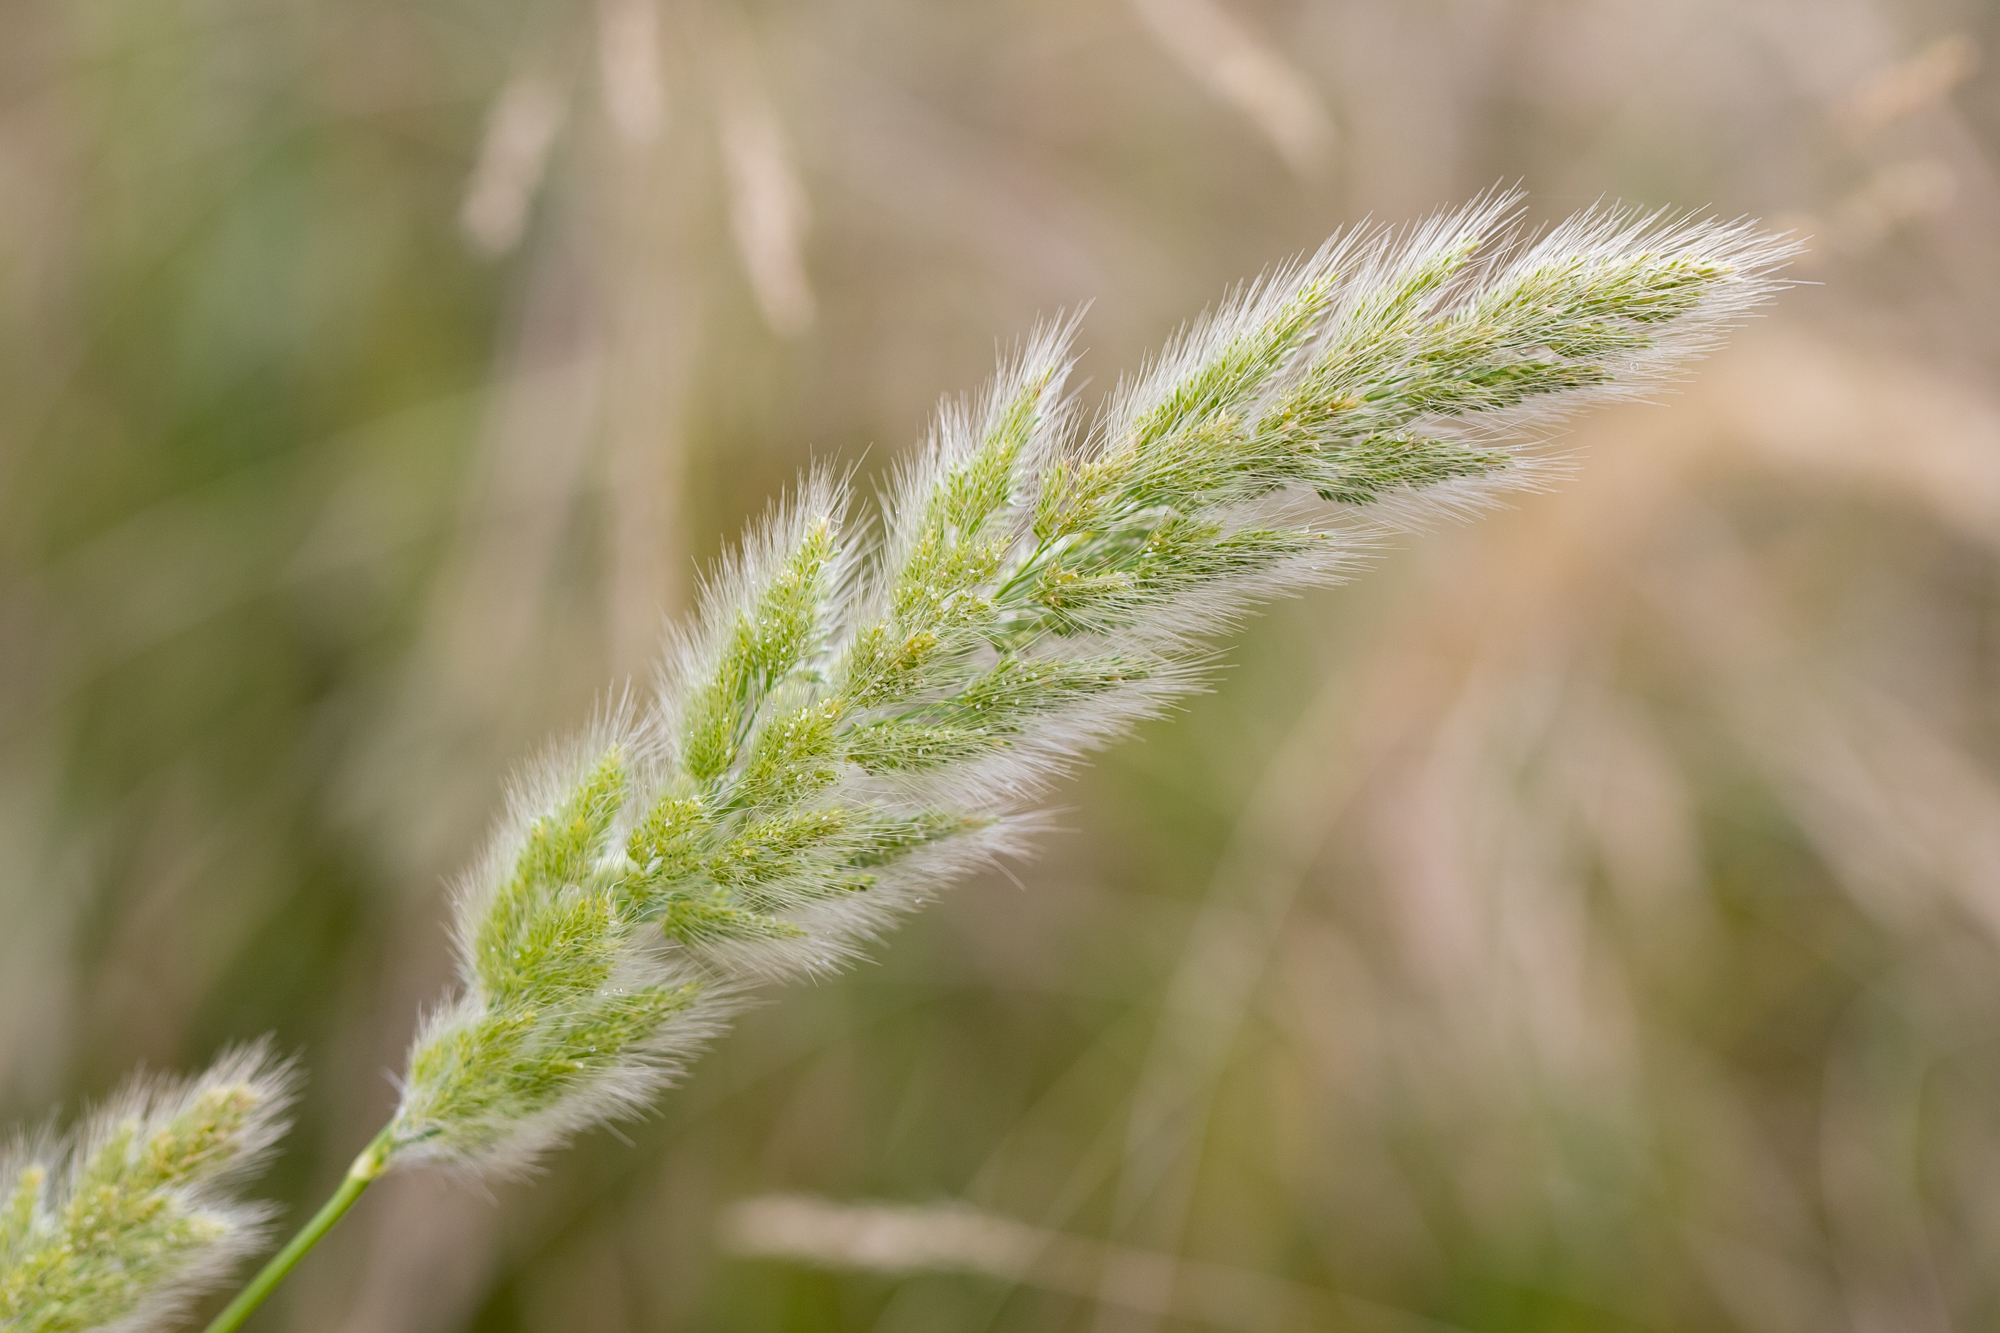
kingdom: Plantae
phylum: Tracheophyta
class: Liliopsida
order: Poales
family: Poaceae
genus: Polypogon
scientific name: Polypogon monspeliensis
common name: Annual rabbitsfoot grass
